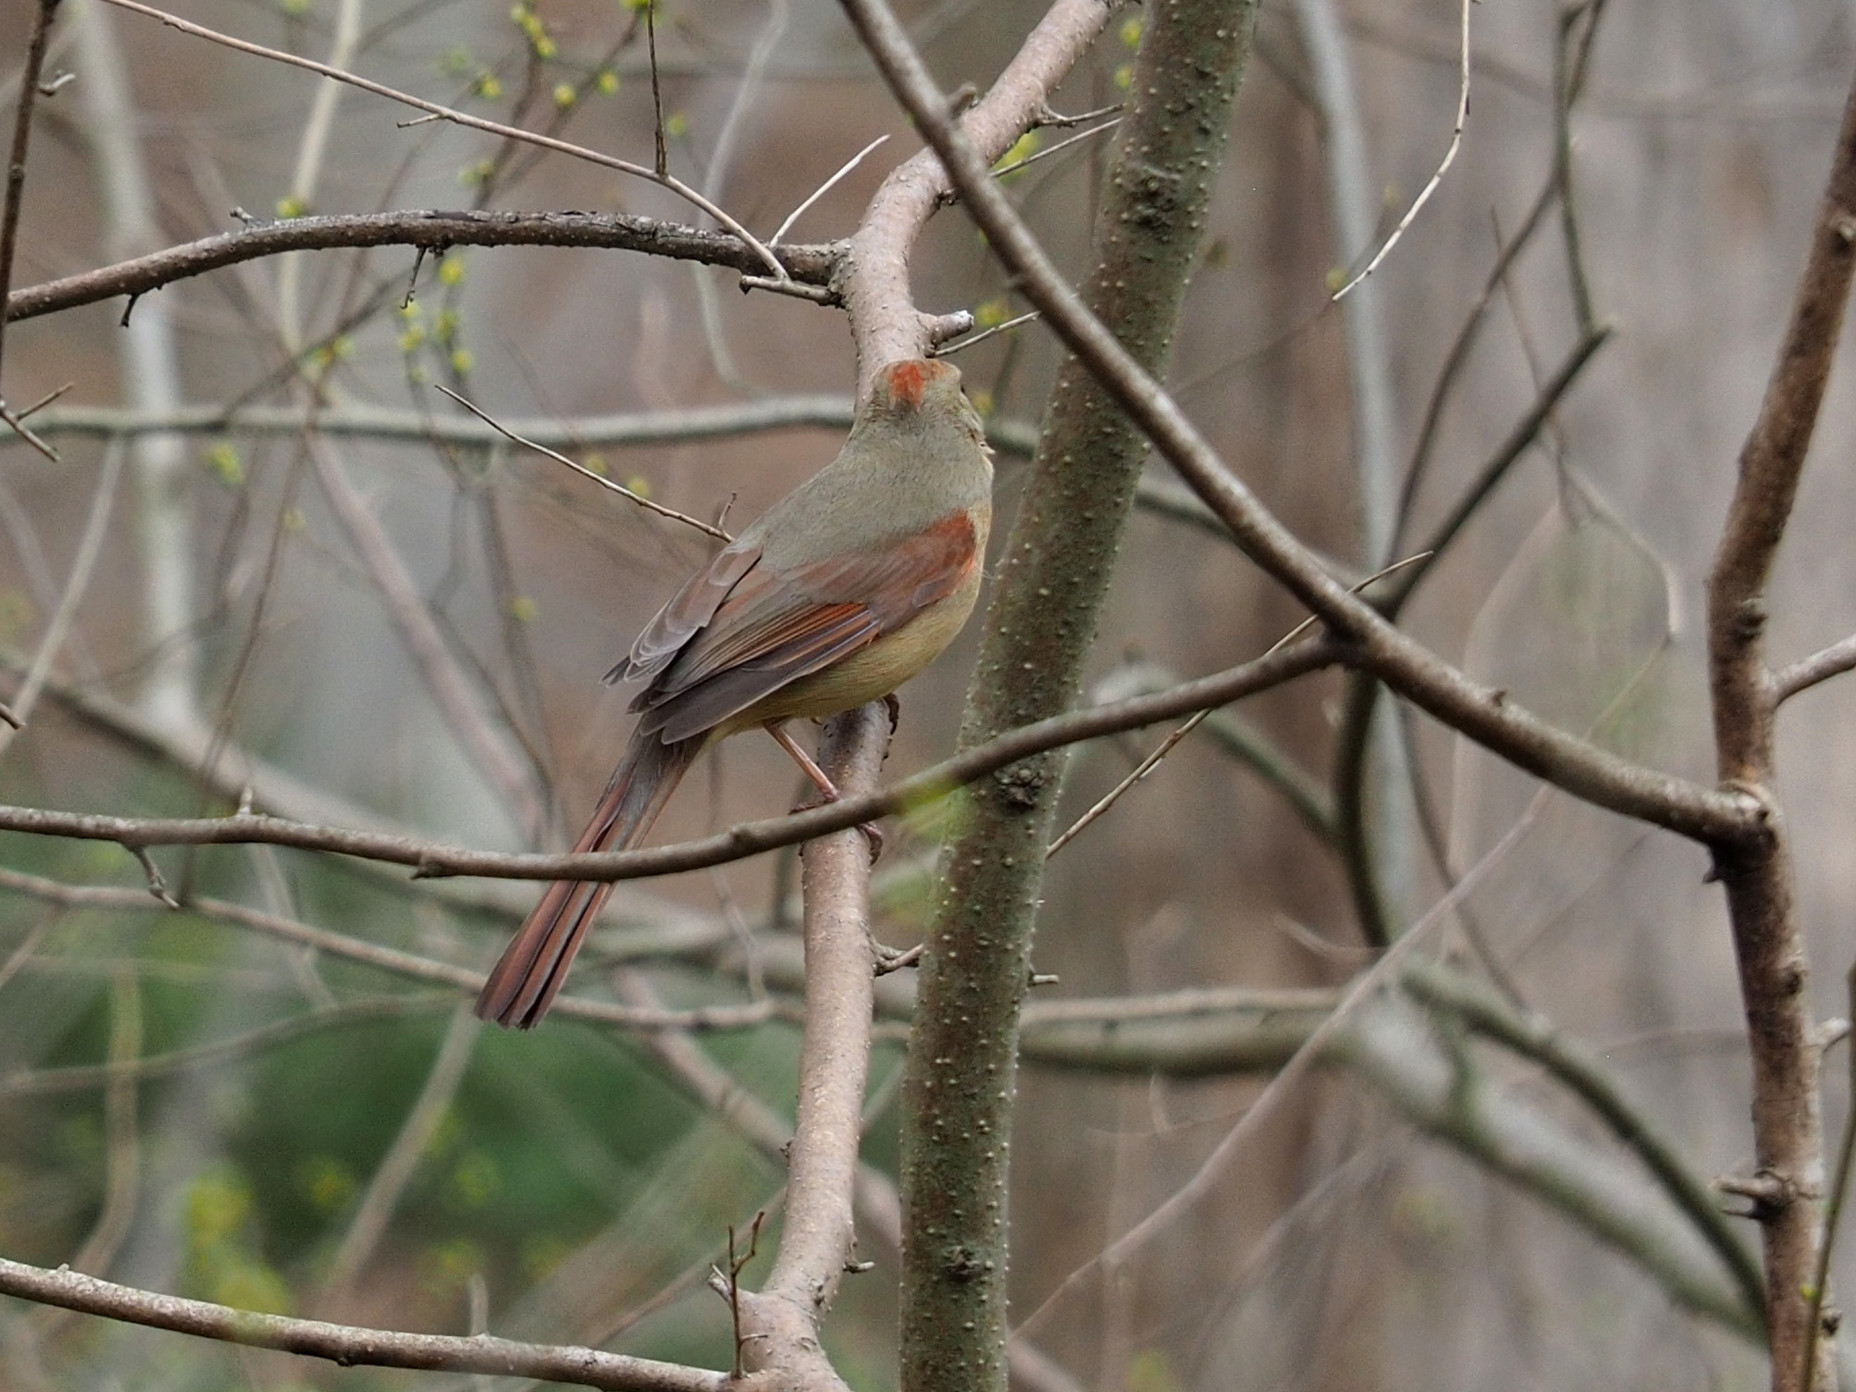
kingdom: Animalia
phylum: Chordata
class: Aves
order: Passeriformes
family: Cardinalidae
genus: Cardinalis
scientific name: Cardinalis cardinalis
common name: Northern cardinal
